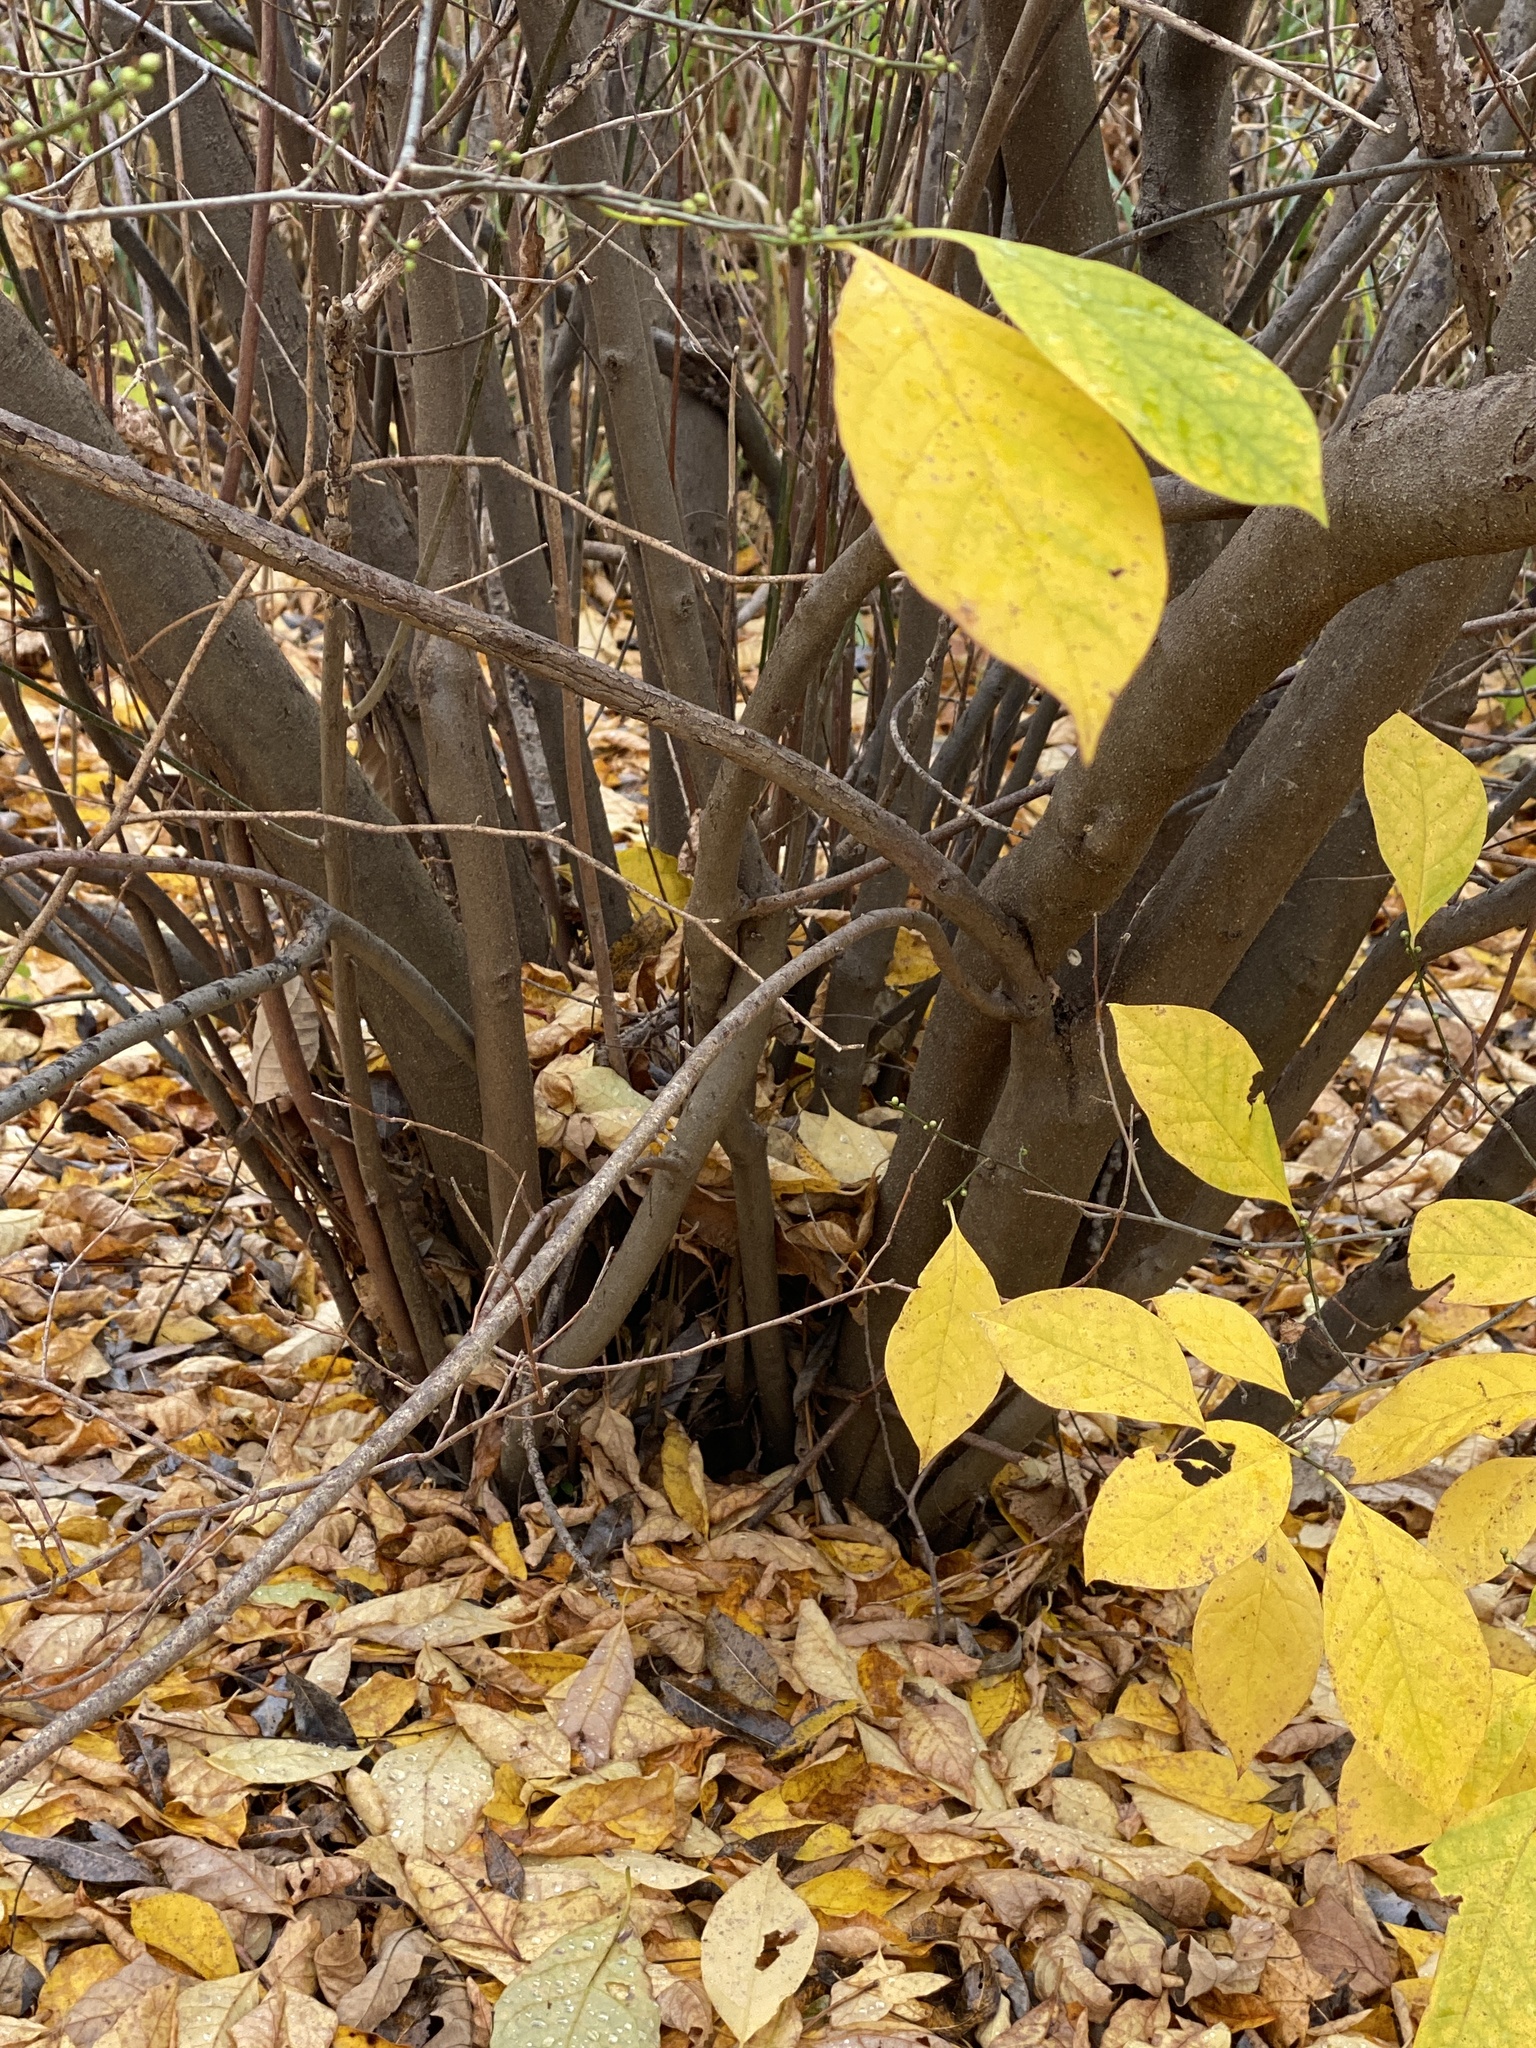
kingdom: Plantae
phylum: Tracheophyta
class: Magnoliopsida
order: Laurales
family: Lauraceae
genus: Lindera
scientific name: Lindera benzoin
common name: Spicebush
